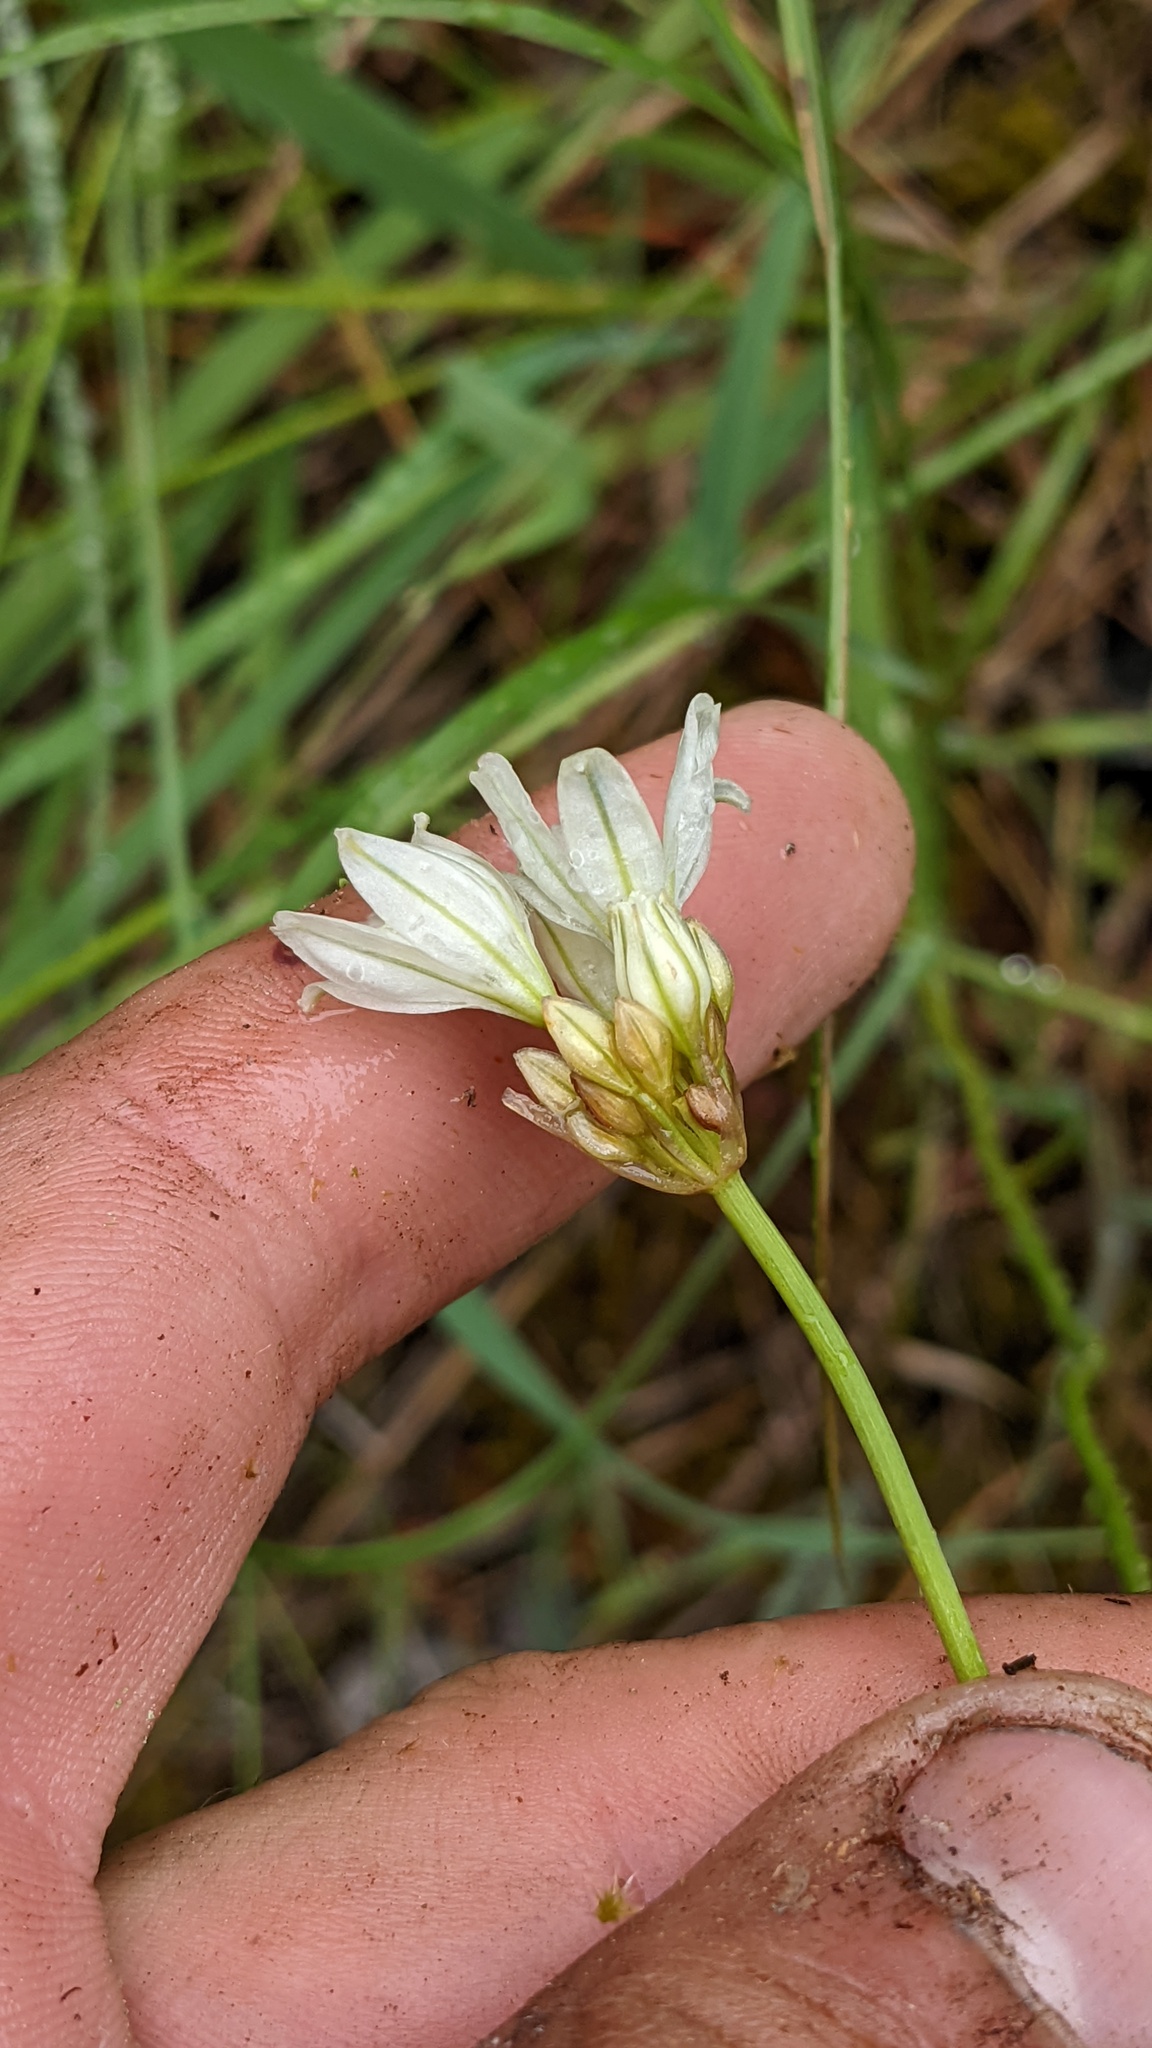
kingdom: Plantae
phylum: Tracheophyta
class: Liliopsida
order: Asparagales
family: Asparagaceae
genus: Triteleia
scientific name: Triteleia hyacinthina
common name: White brodiaea
